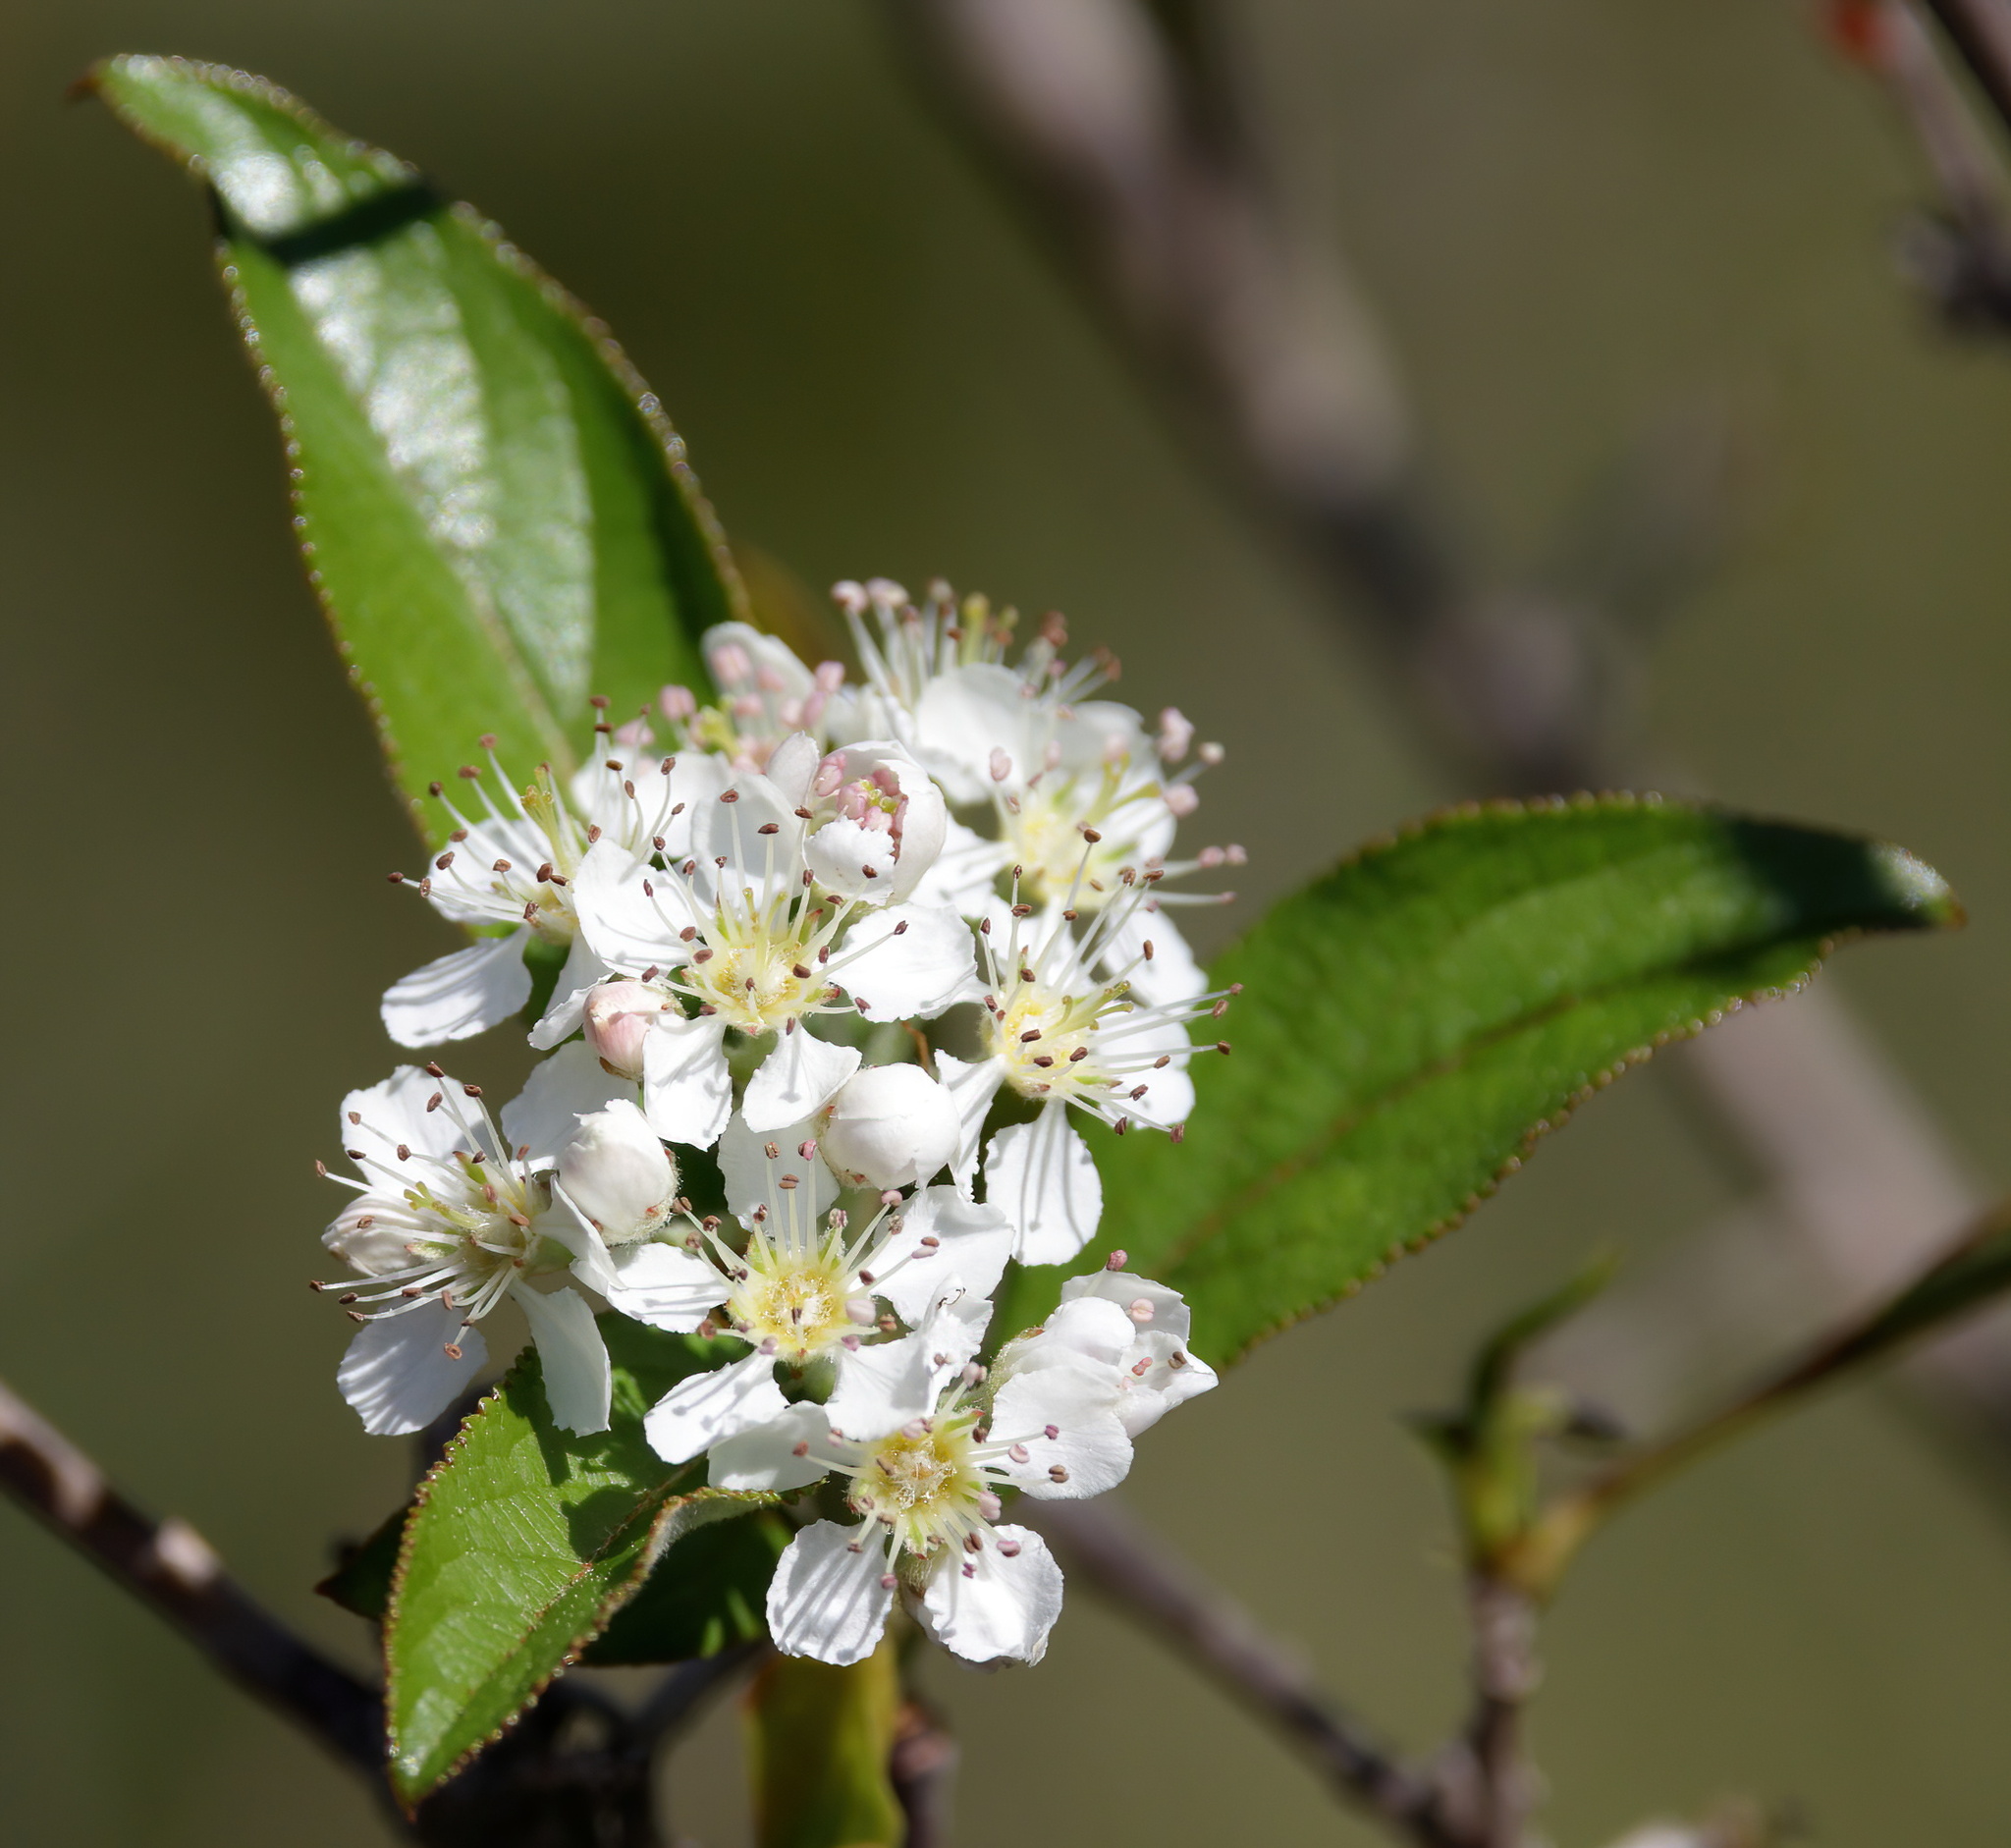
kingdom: Plantae
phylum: Tracheophyta
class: Magnoliopsida
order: Rosales
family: Rosaceae
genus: Aronia
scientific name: Aronia arbutifolia
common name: Red chokeberry
